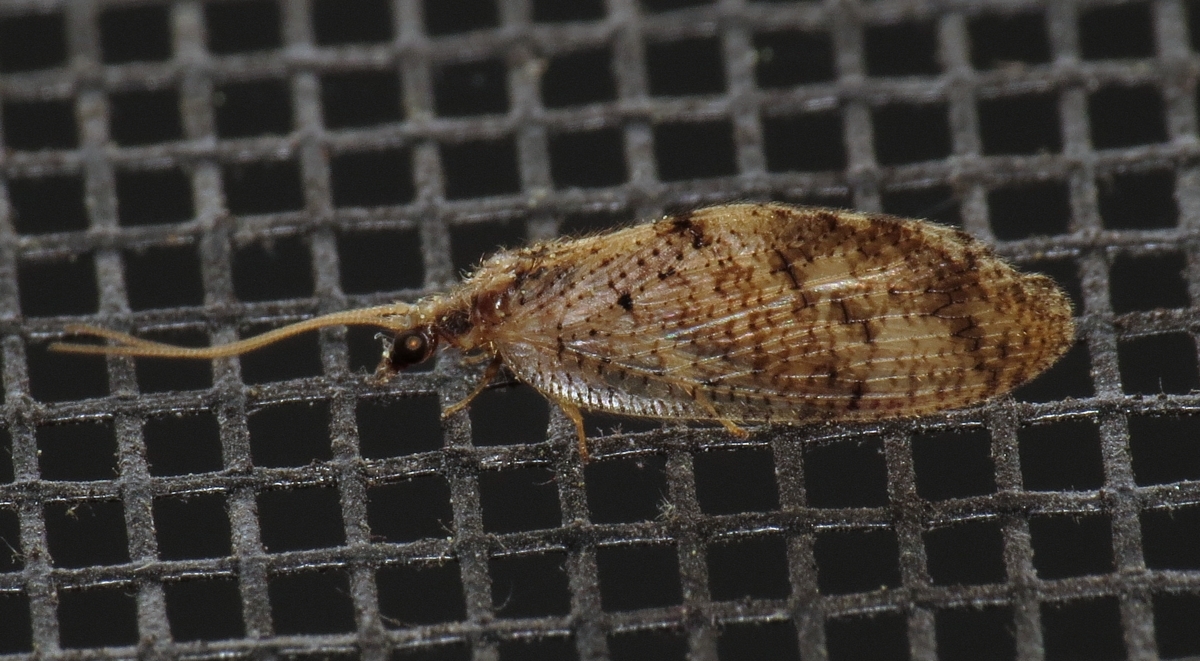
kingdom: Animalia
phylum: Arthropoda
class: Insecta
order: Neuroptera
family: Hemerobiidae
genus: Hemerobius
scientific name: Hemerobius humulinus
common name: Humulin brown lacewing
